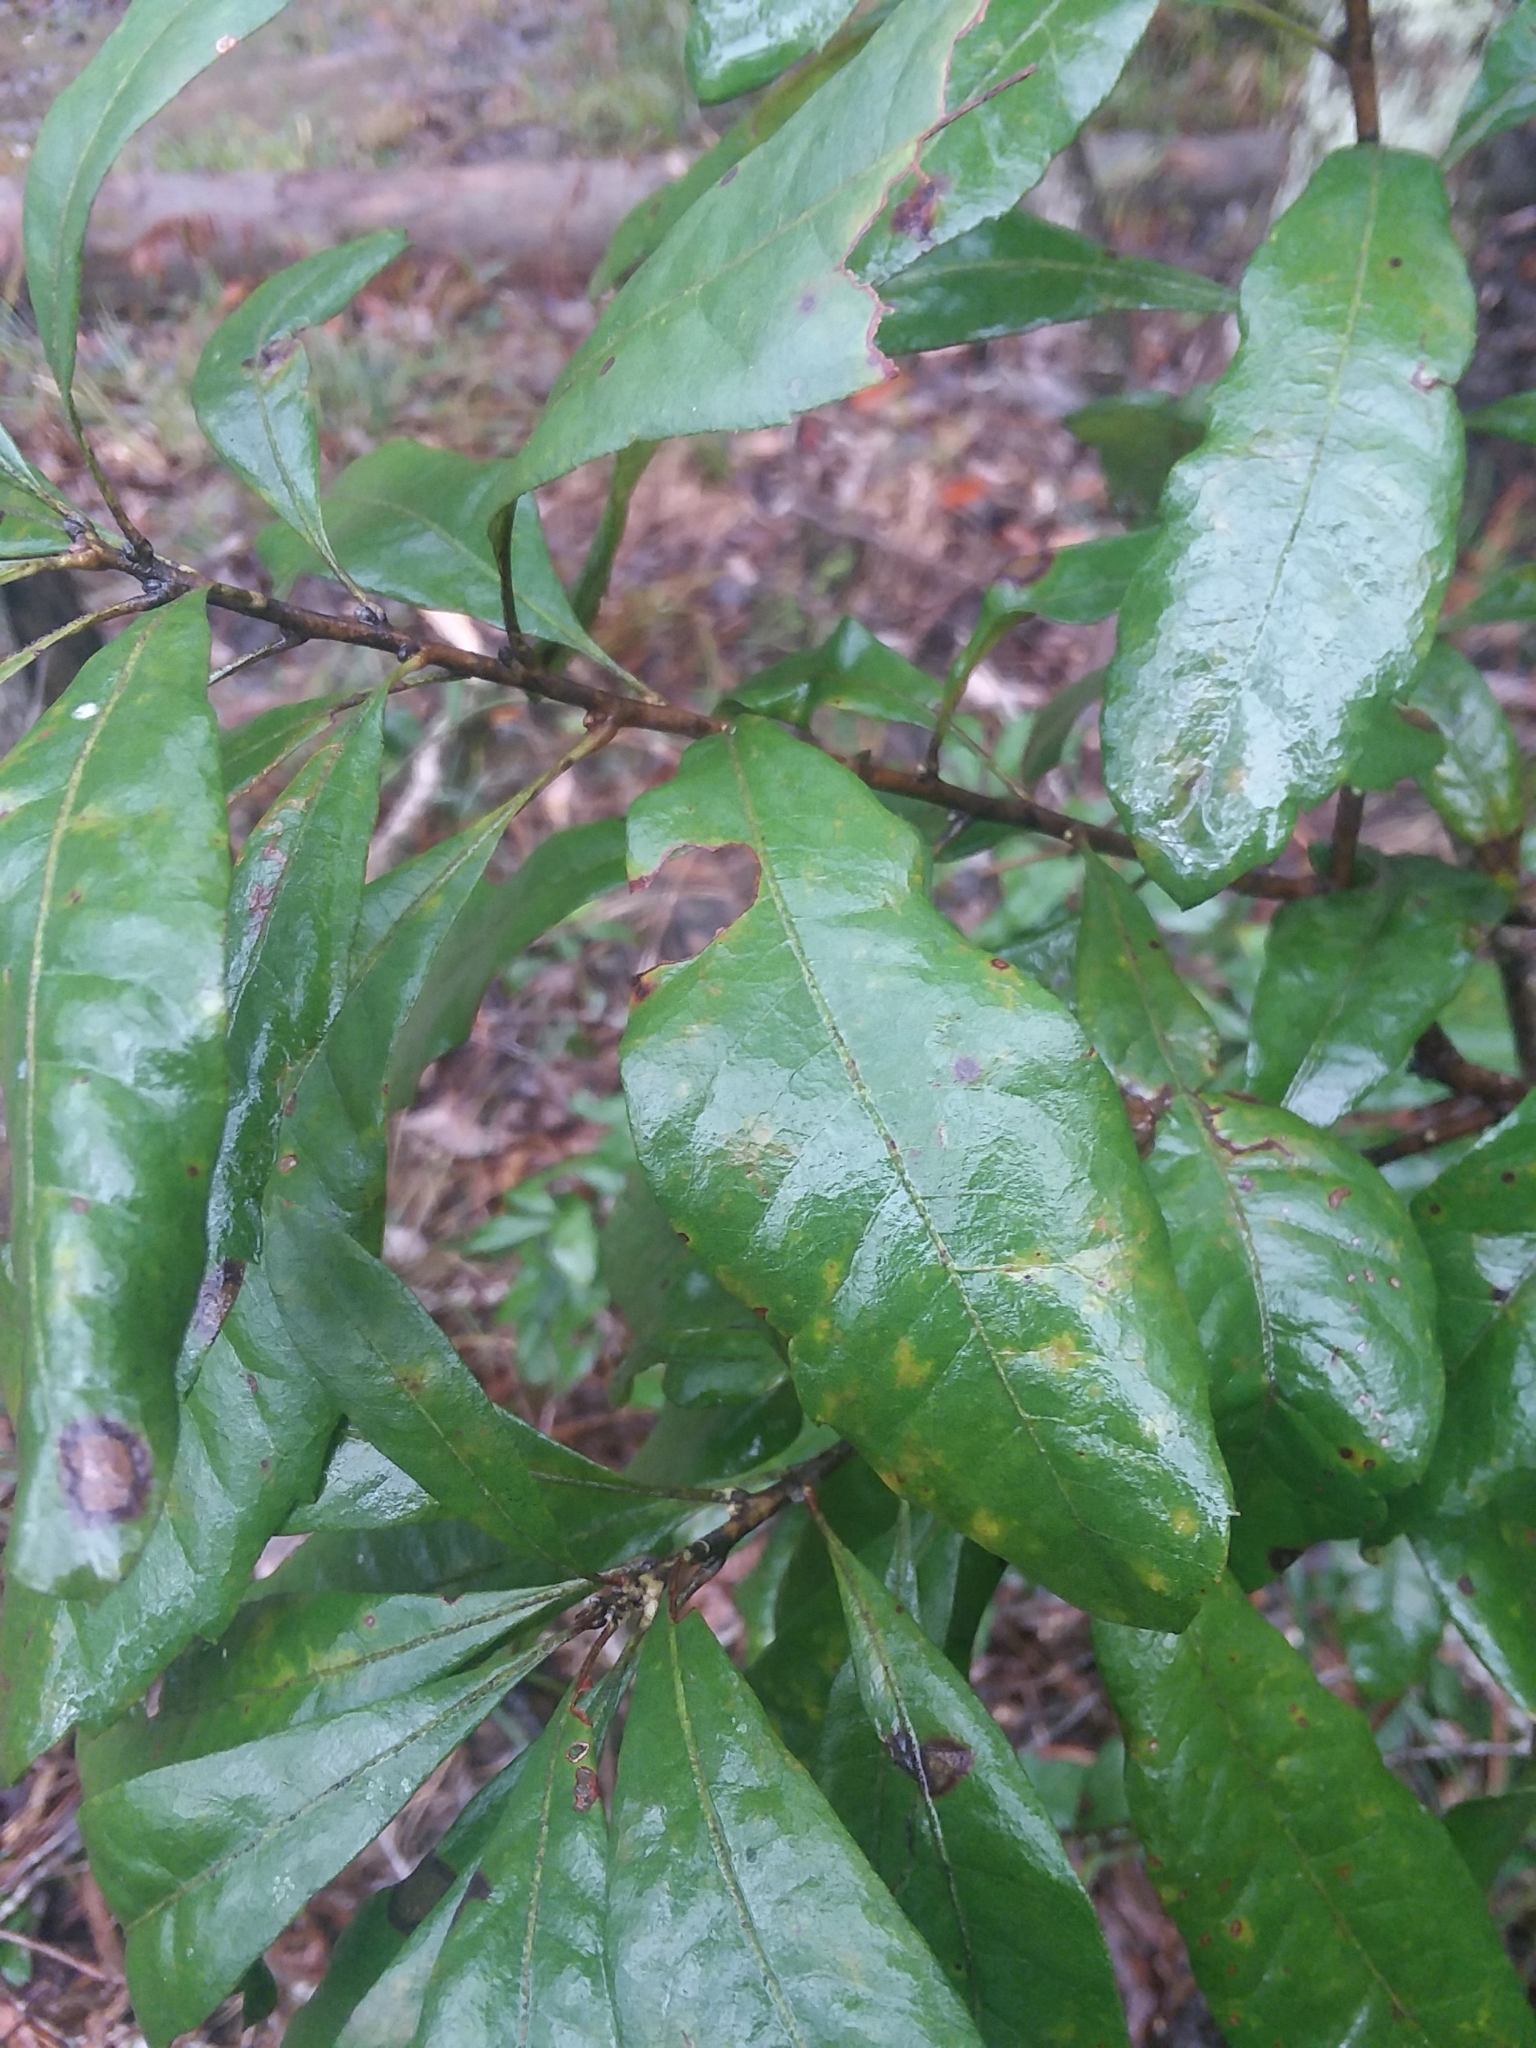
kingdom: Plantae
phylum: Tracheophyta
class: Magnoliopsida
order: Fagales
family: Myricaceae
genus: Morella
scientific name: Morella caroliniensis
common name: Evergreen bayberry
